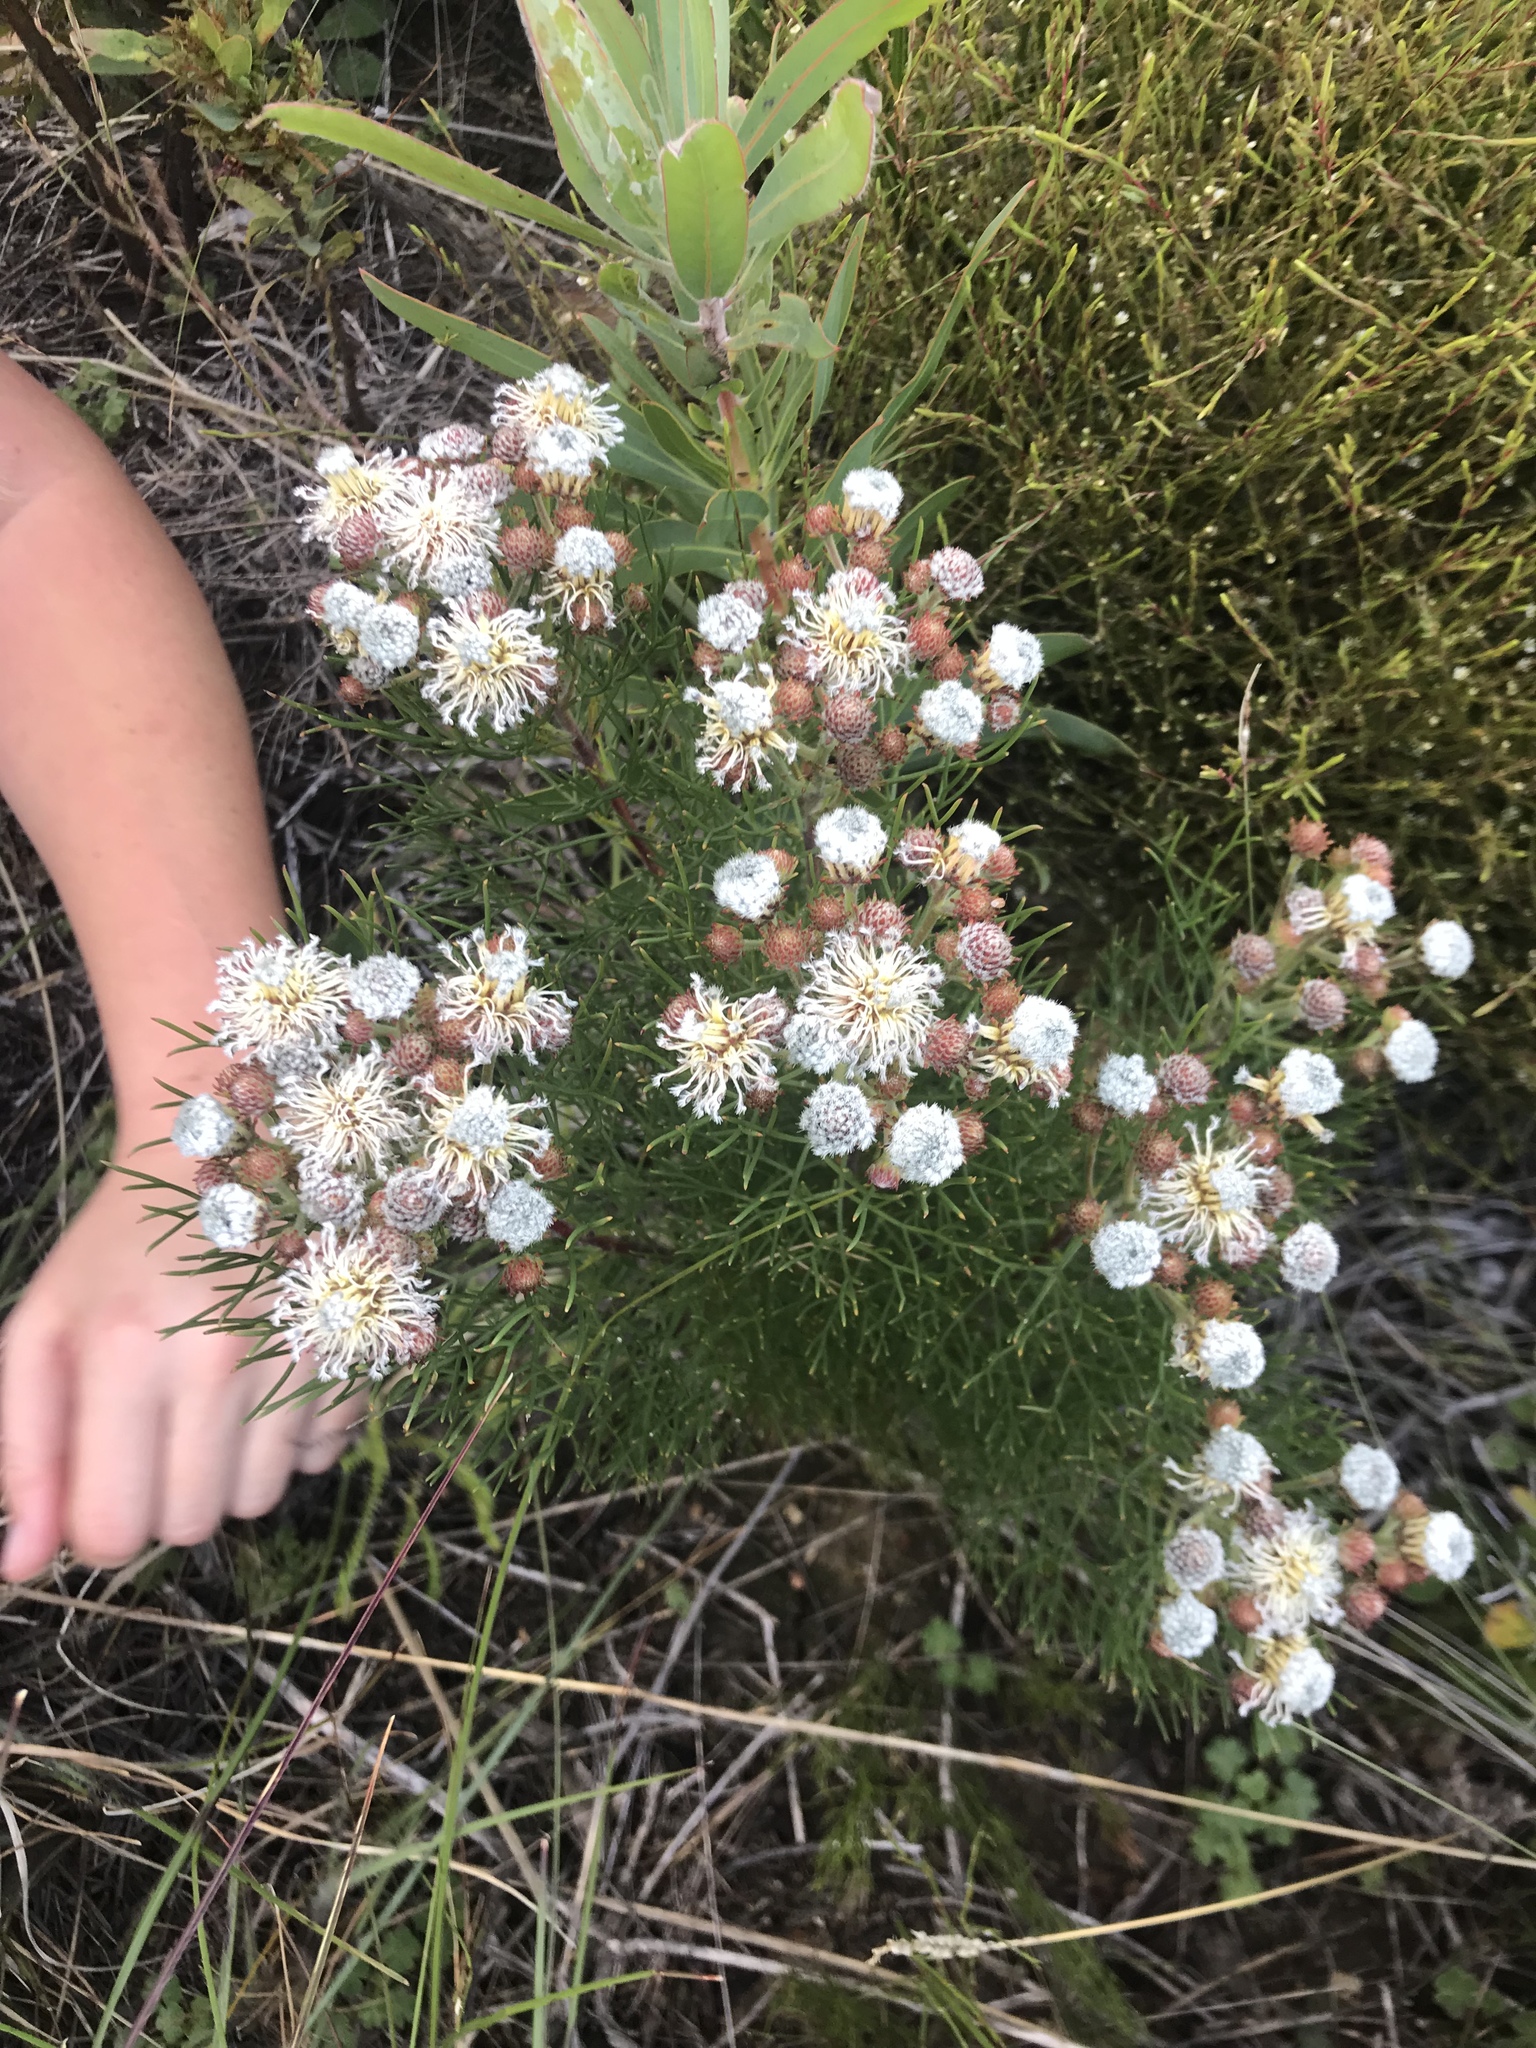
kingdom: Plantae
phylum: Tracheophyta
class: Magnoliopsida
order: Proteales
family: Proteaceae
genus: Serruria
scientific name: Serruria kraussii
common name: Snowball spiderhead
